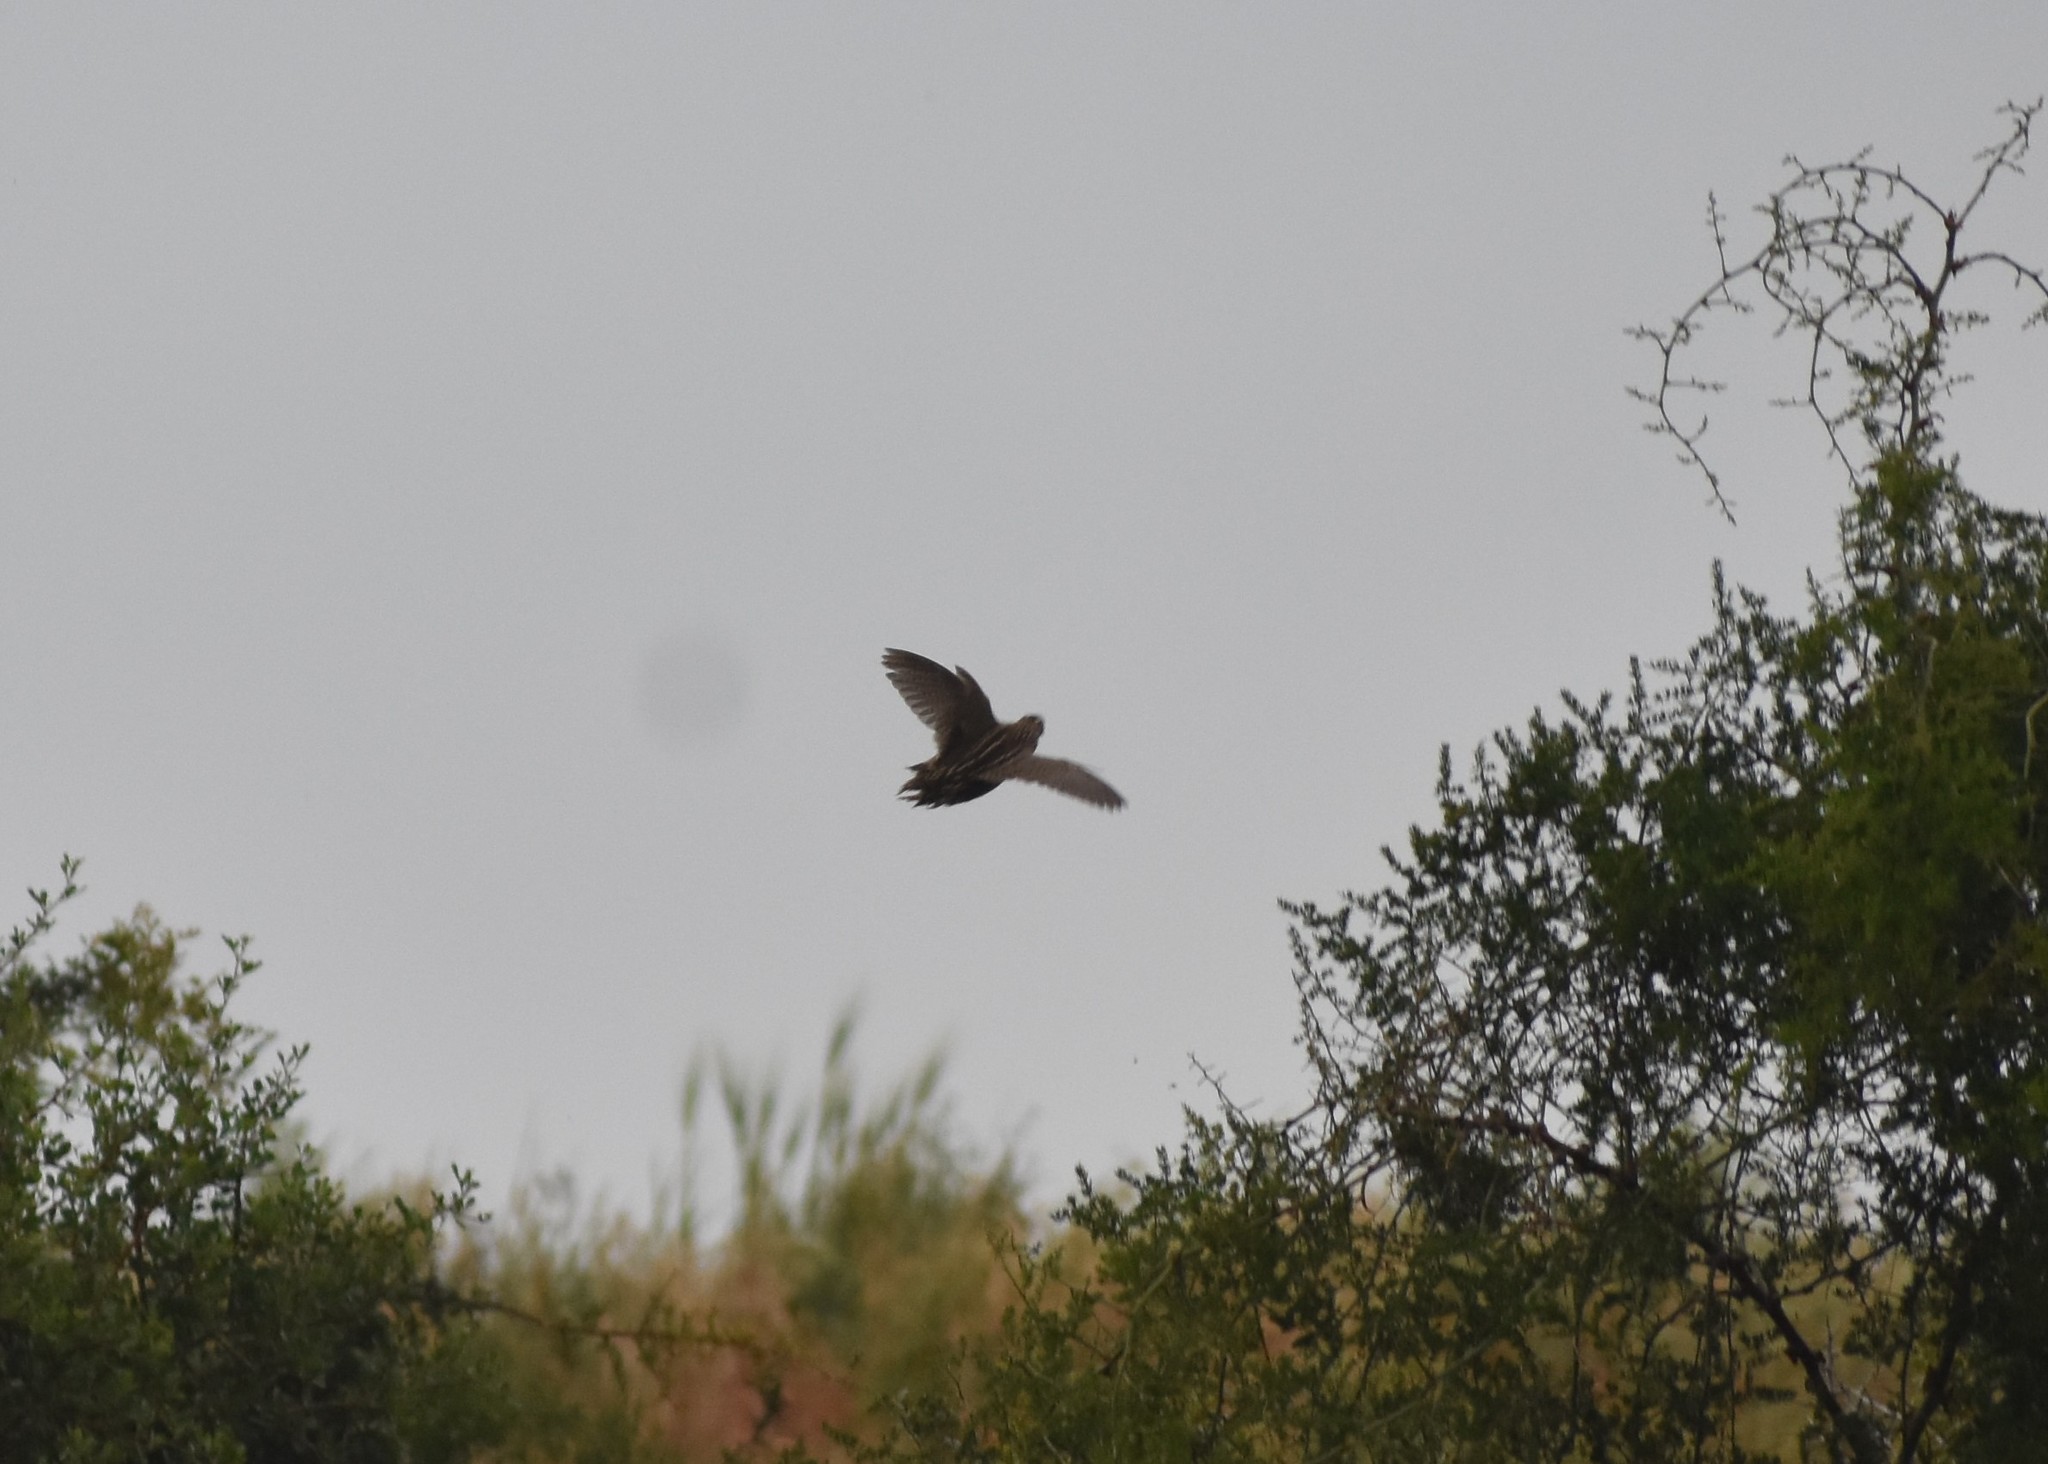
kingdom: Animalia
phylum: Chordata
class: Aves
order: Galliformes
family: Phasianidae
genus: Coturnix
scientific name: Coturnix coturnix
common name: Common quail
